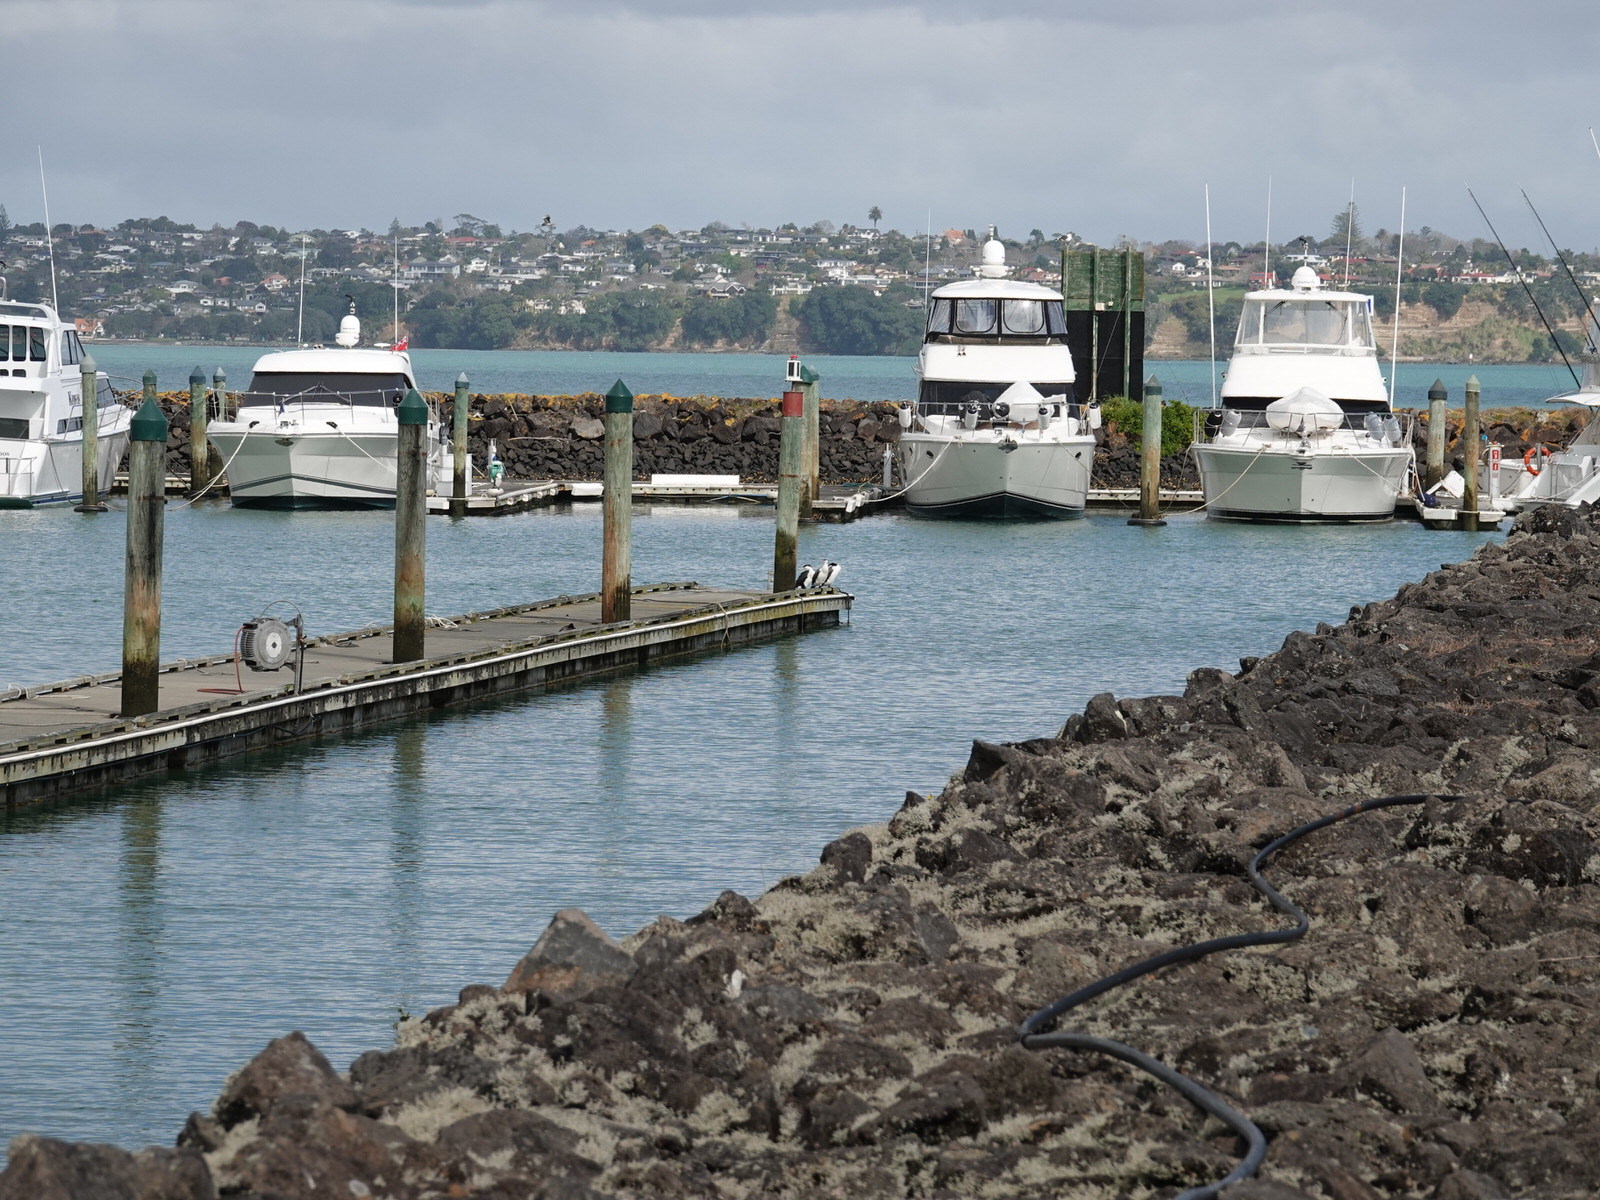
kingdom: Animalia
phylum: Chordata
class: Aves
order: Suliformes
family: Phalacrocoracidae
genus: Phalacrocorax
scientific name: Phalacrocorax varius
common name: Pied cormorant
